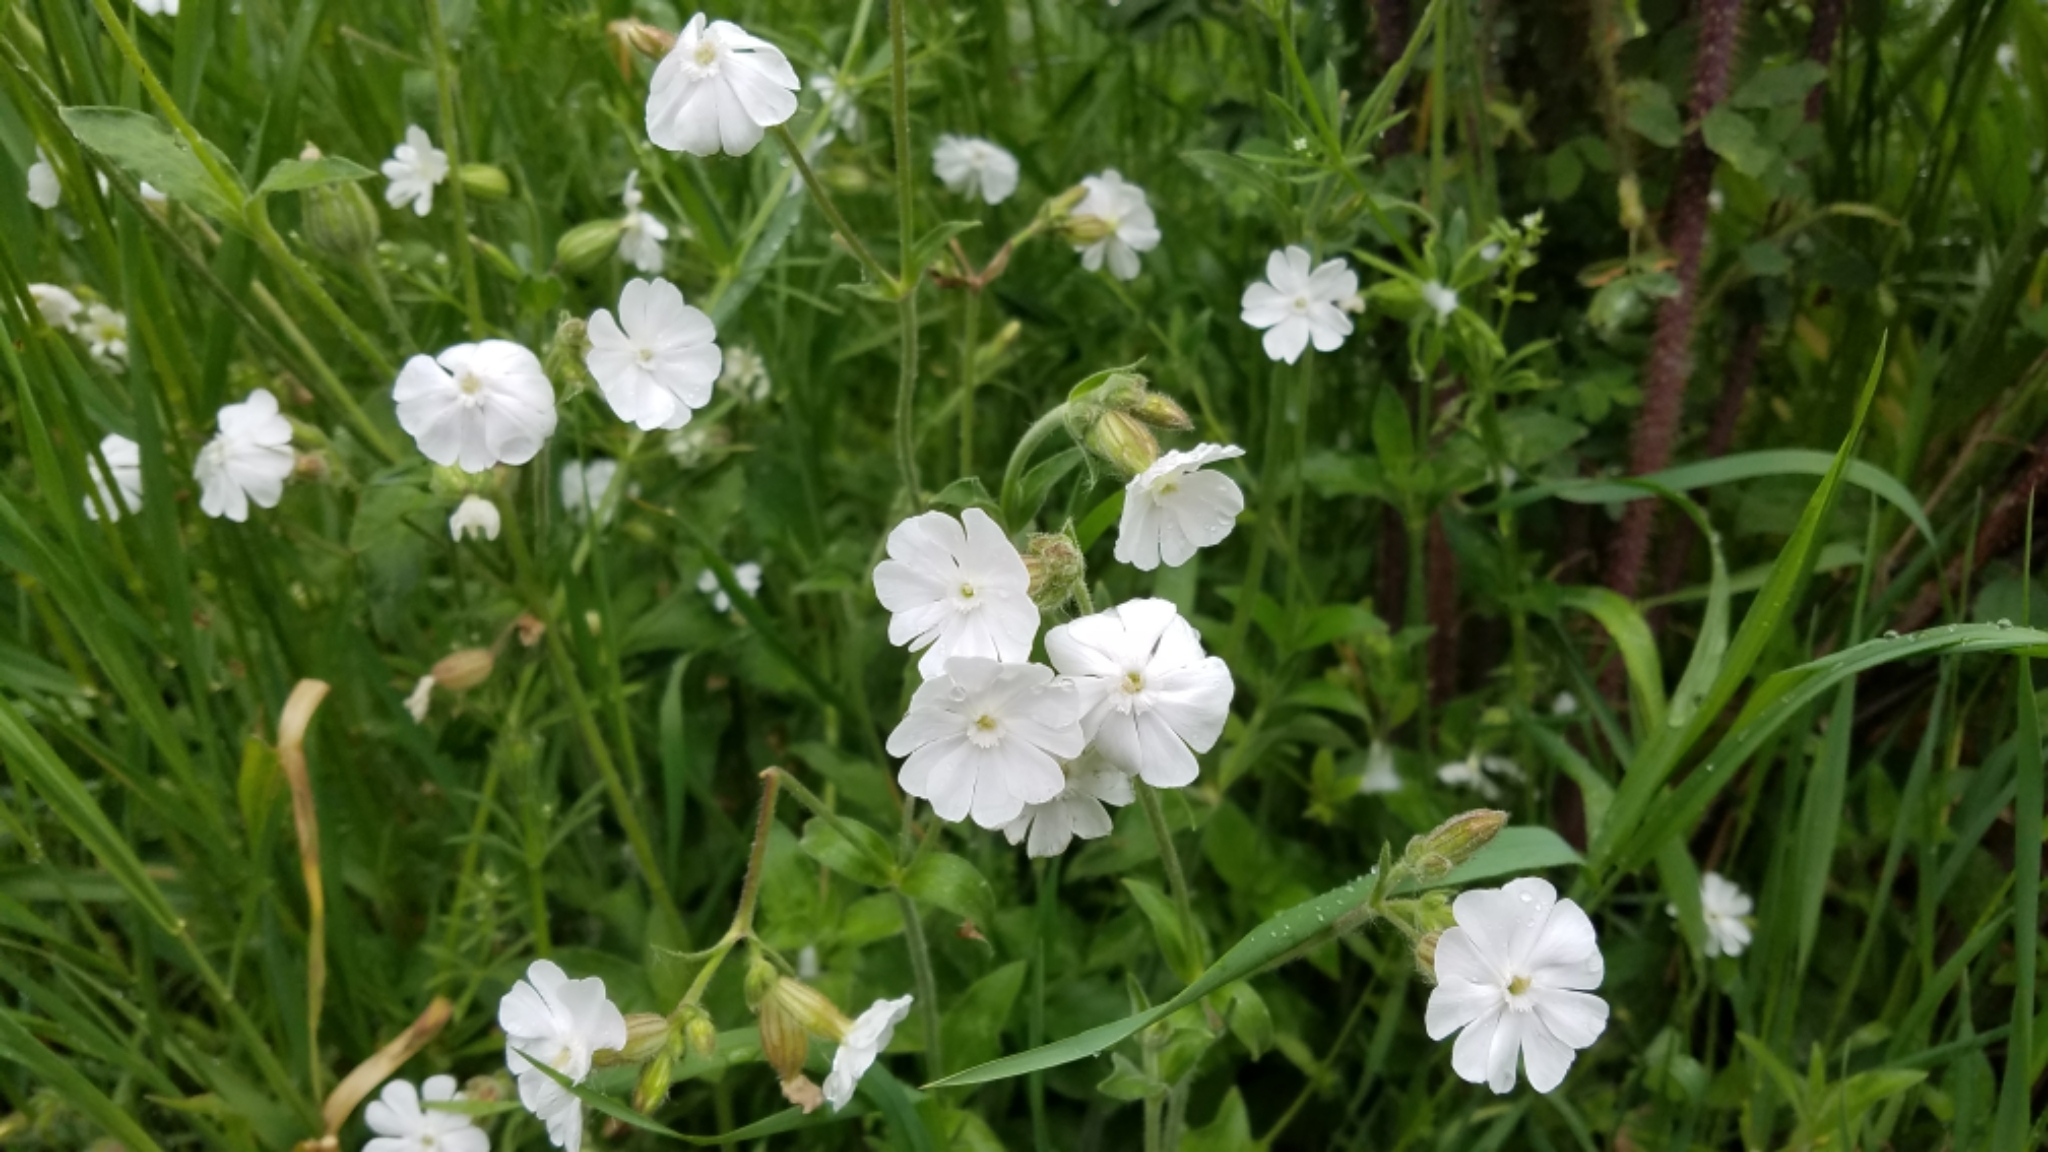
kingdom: Plantae
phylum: Tracheophyta
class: Magnoliopsida
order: Caryophyllales
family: Caryophyllaceae
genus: Silene
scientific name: Silene latifolia
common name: White campion
